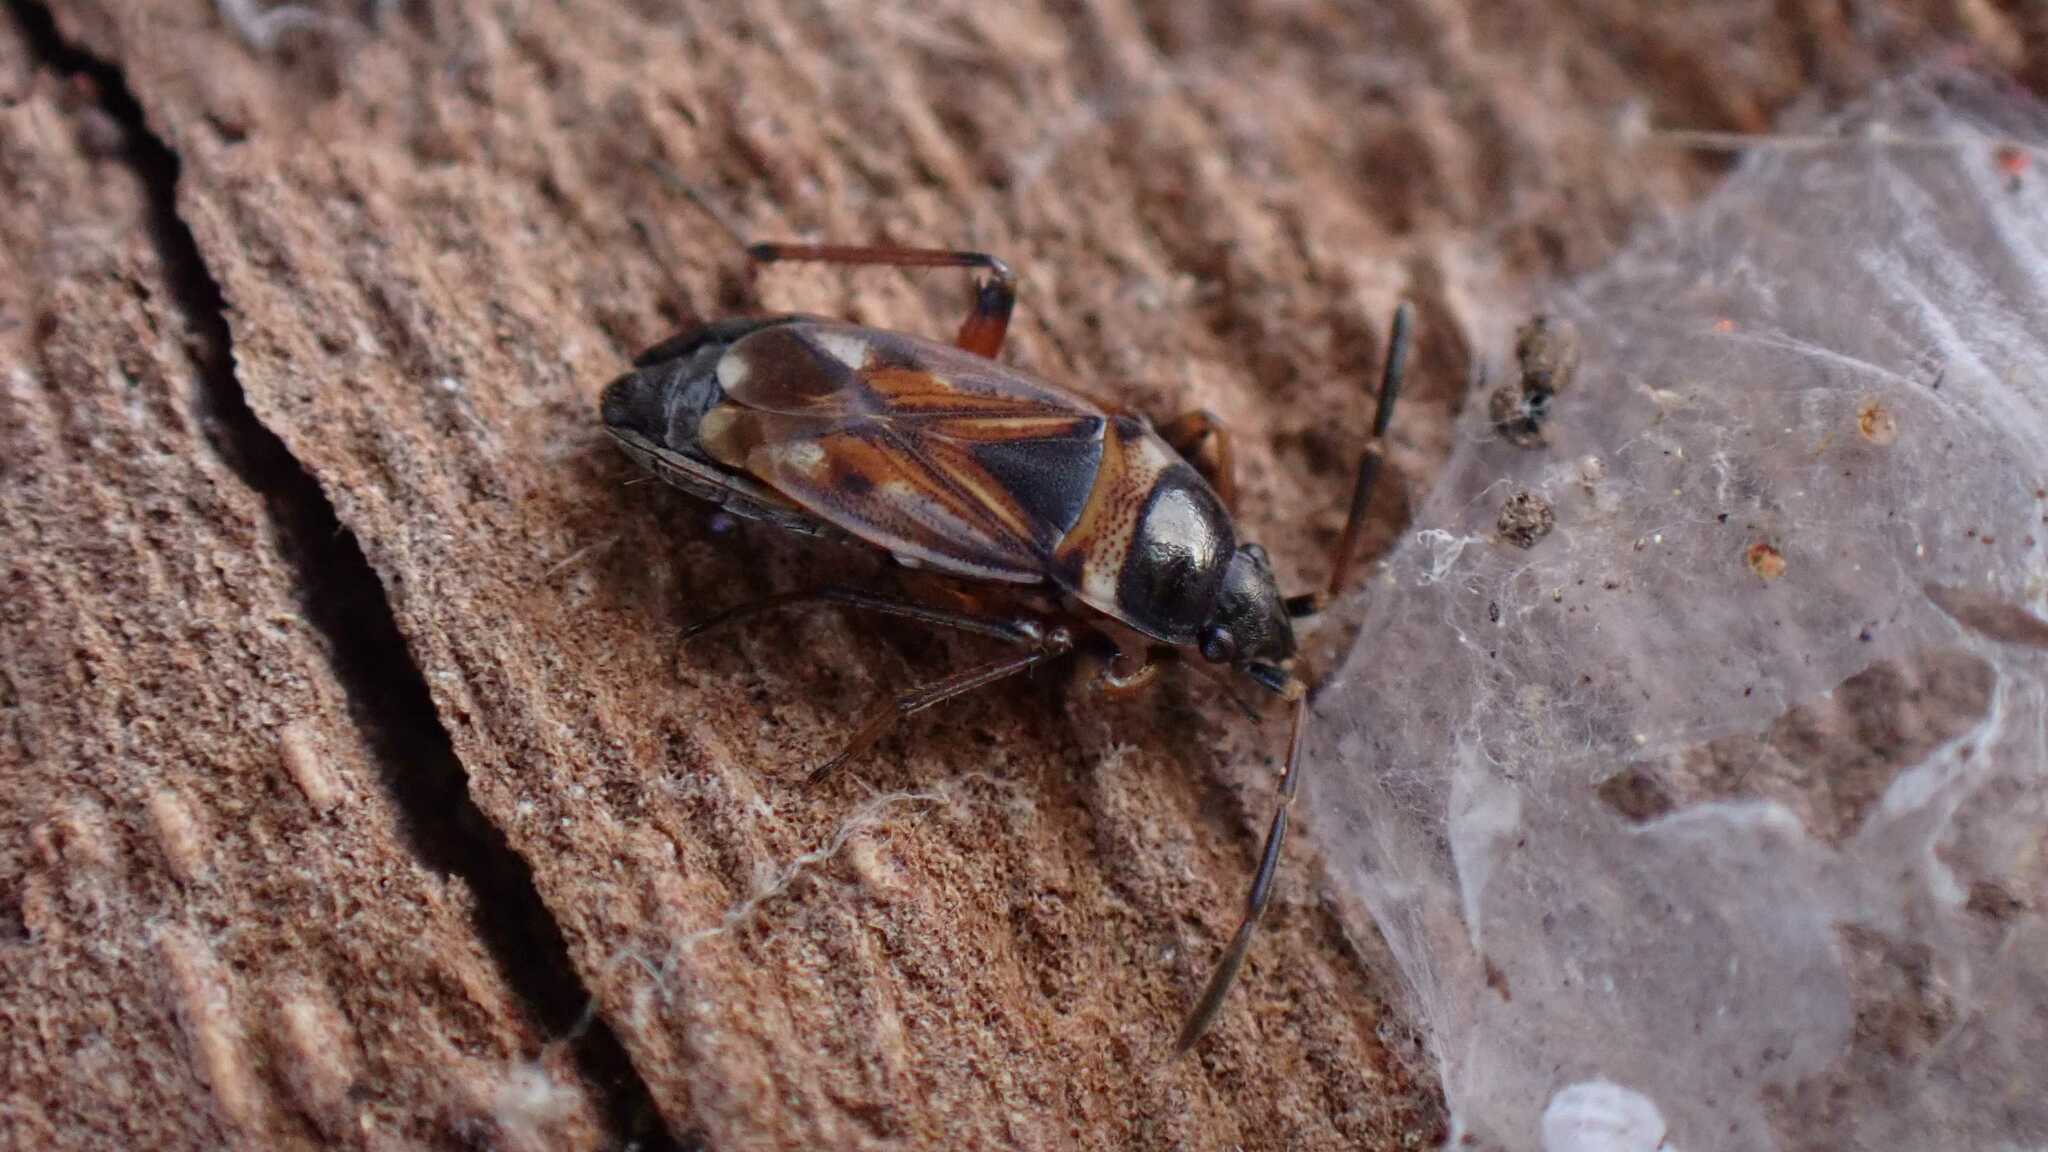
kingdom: Animalia
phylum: Arthropoda
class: Insecta
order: Hemiptera
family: Rhyparochromidae
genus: Raglius
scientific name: Raglius alboacuminatus
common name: Dirt-colored seed bug
